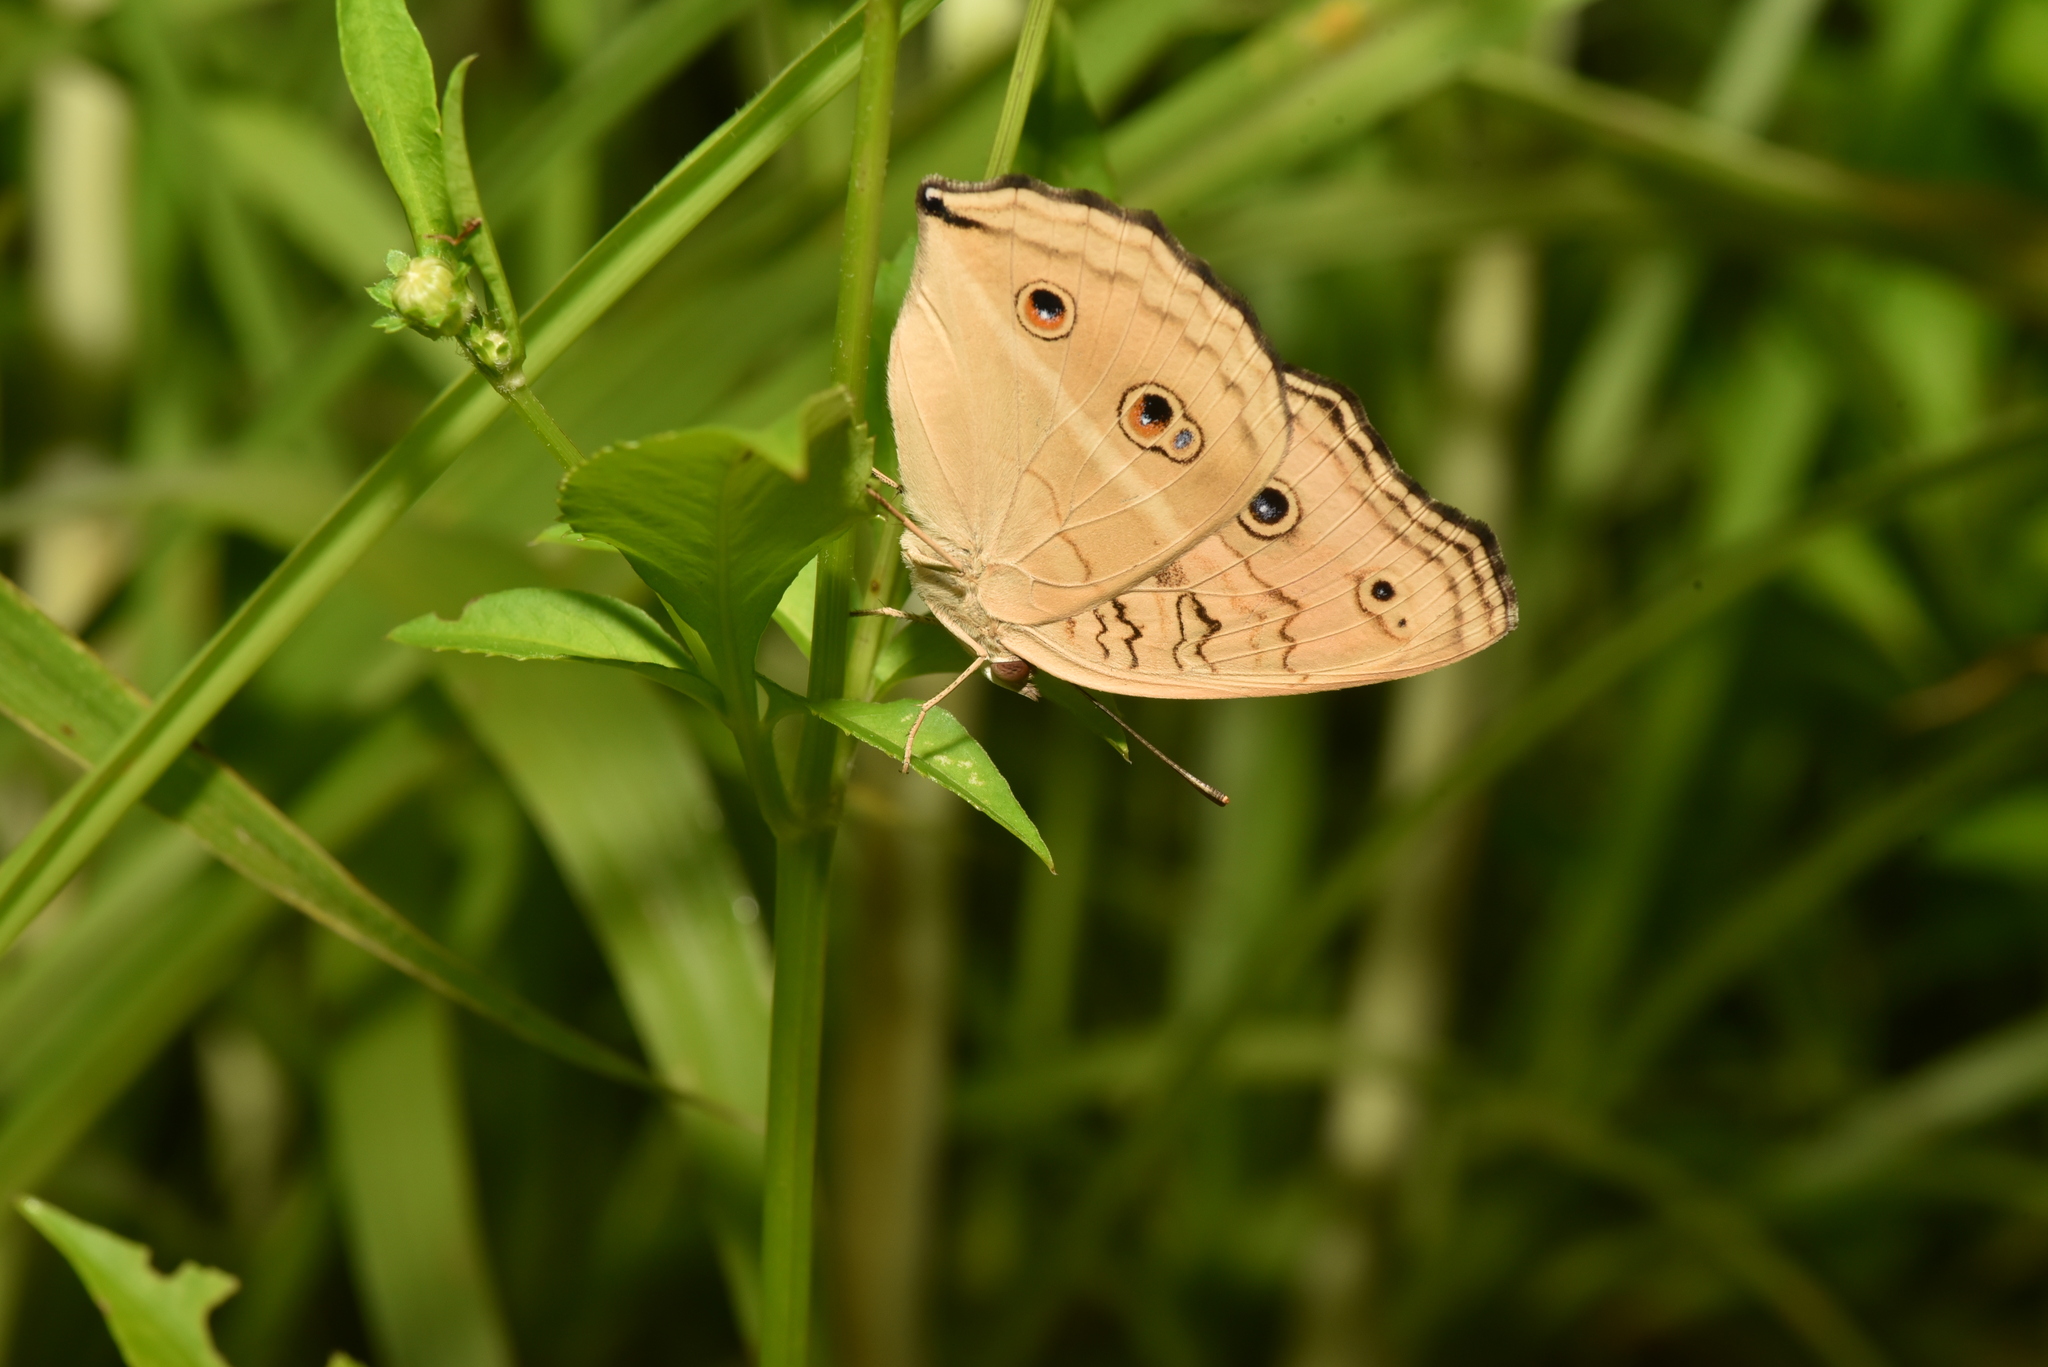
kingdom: Animalia
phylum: Arthropoda
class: Insecta
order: Lepidoptera
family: Nymphalidae
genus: Junonia
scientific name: Junonia almana
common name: Peacock pansy
